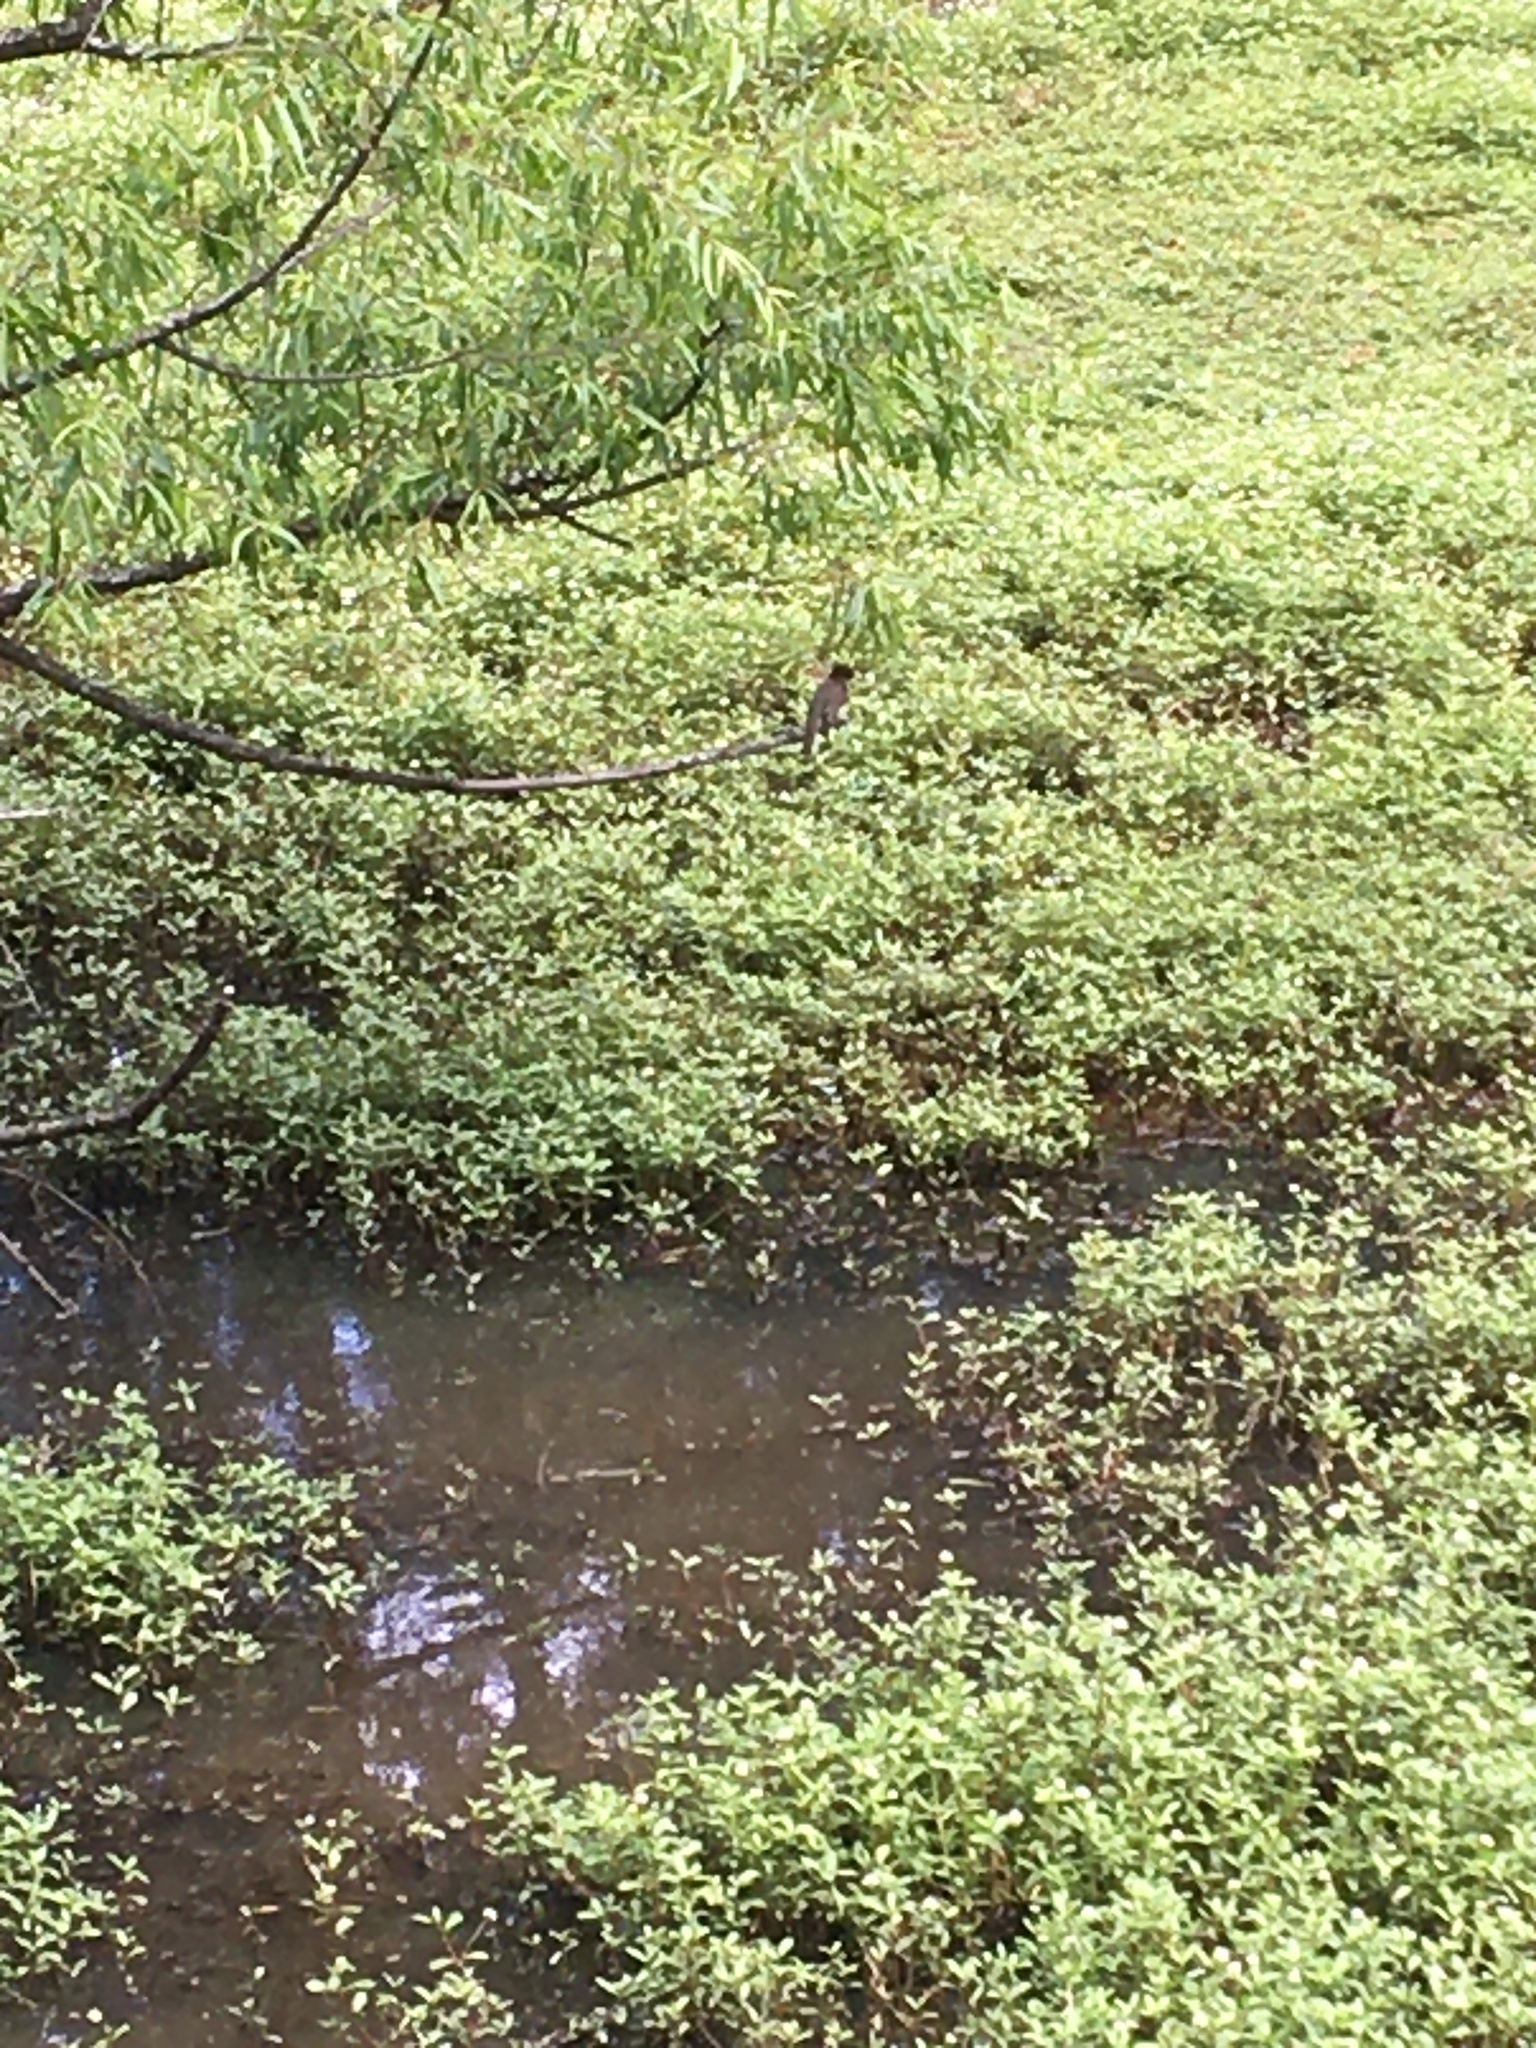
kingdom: Animalia
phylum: Chordata
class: Aves
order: Passeriformes
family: Tyrannidae
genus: Sayornis
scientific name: Sayornis phoebe
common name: Eastern phoebe
